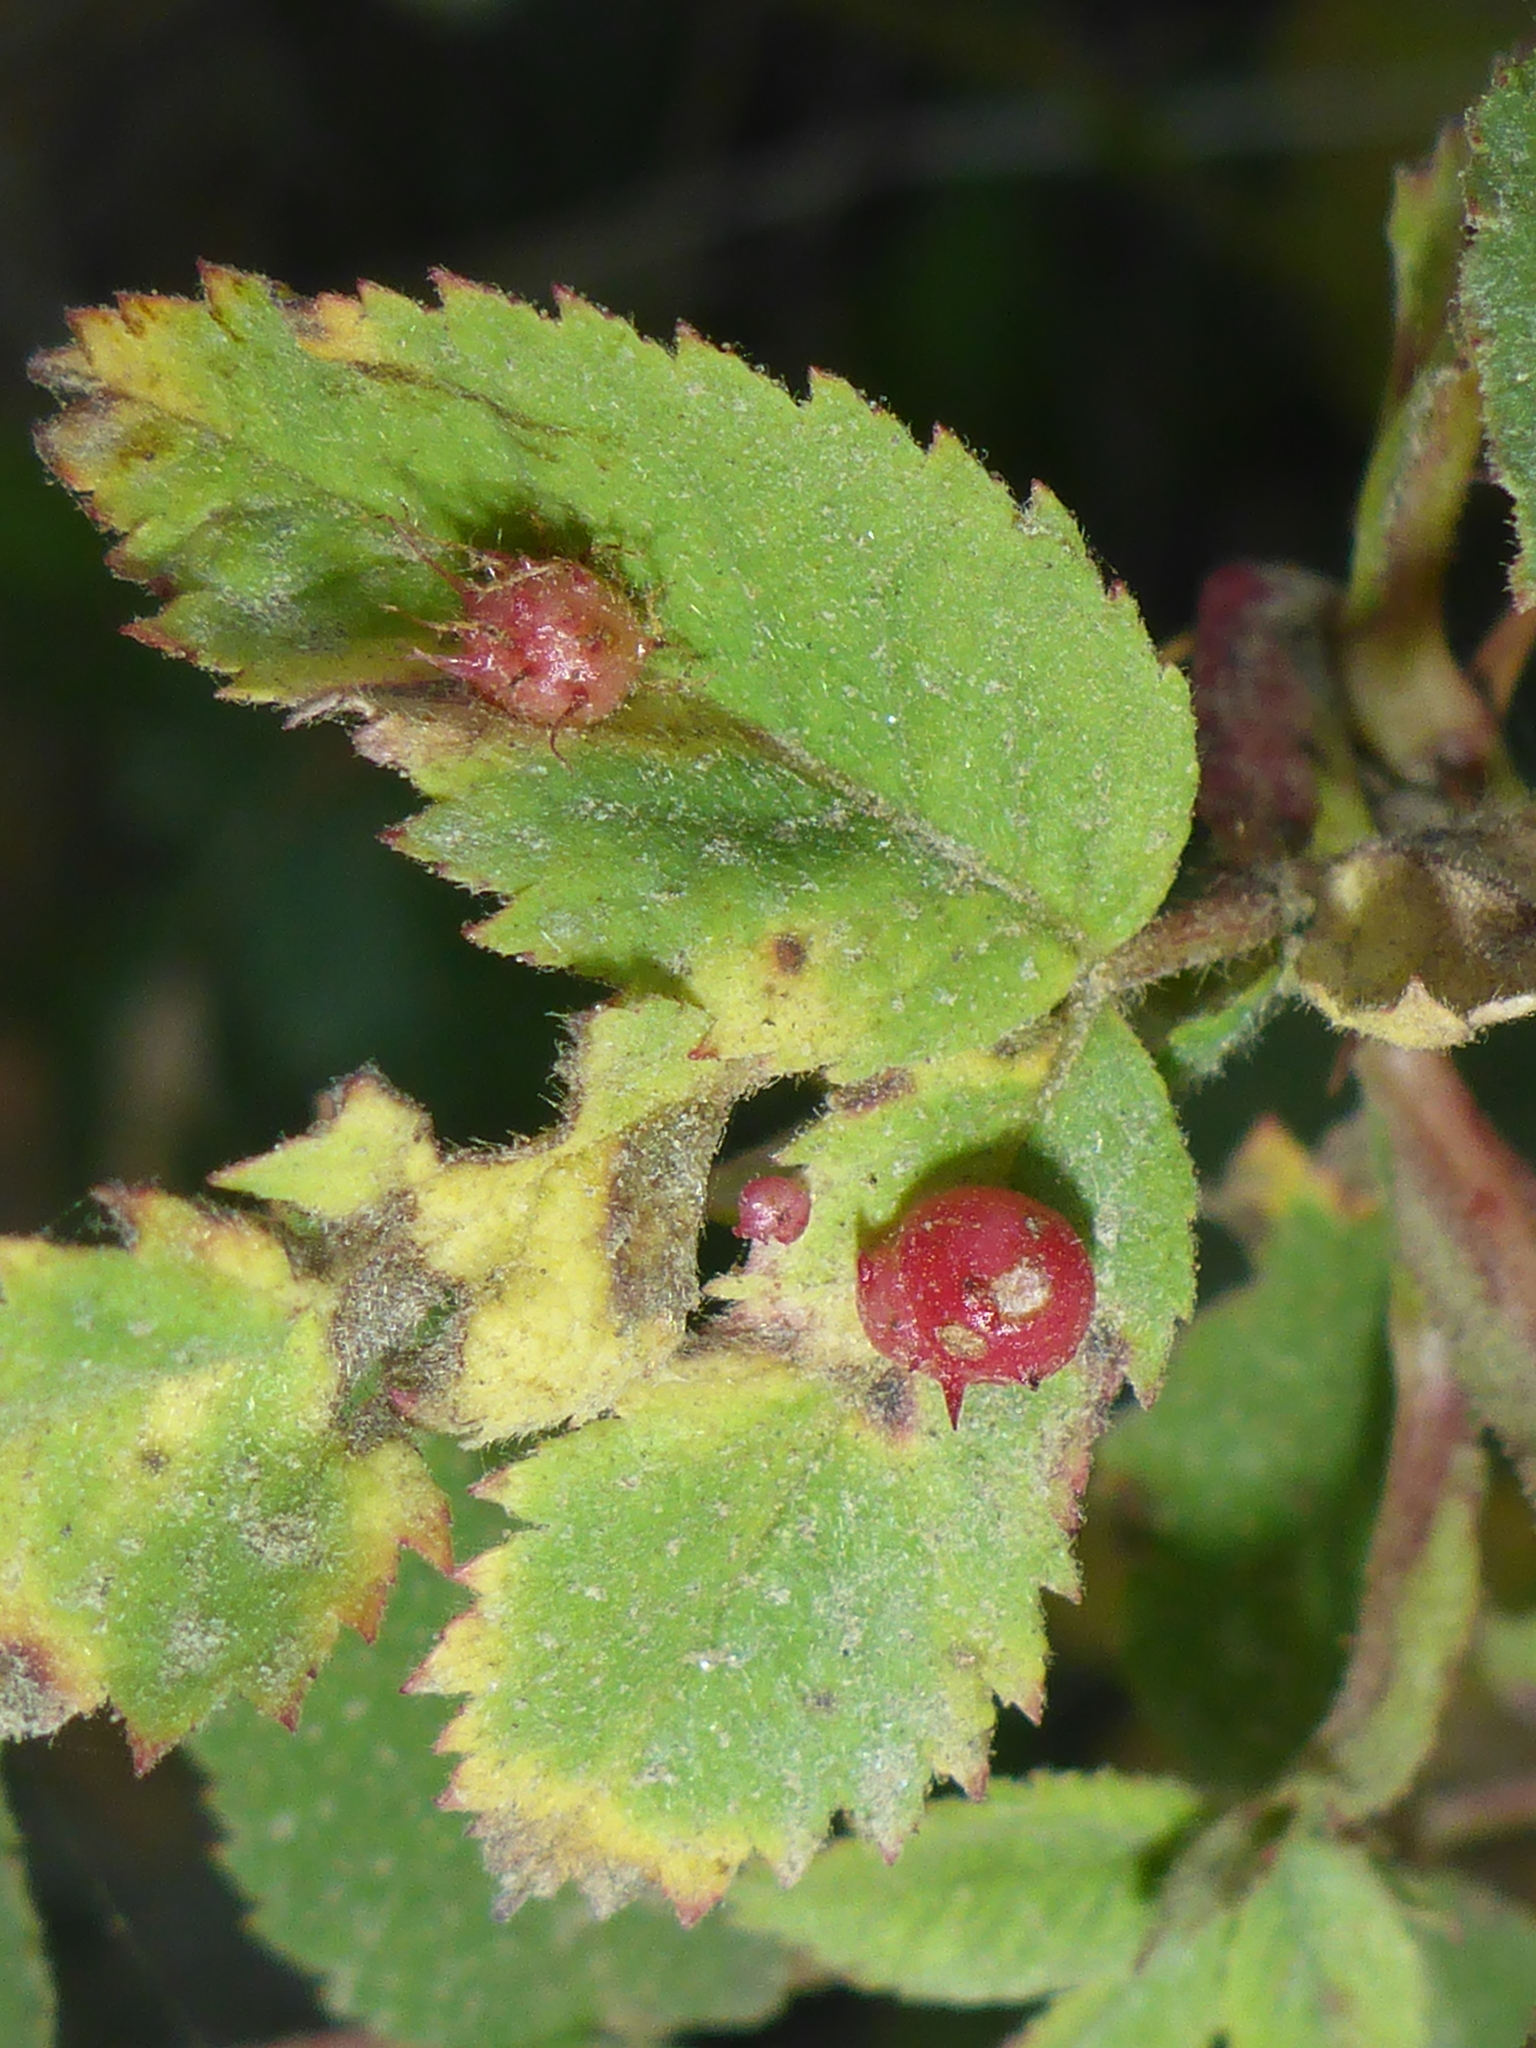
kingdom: Animalia
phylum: Arthropoda
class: Insecta
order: Hymenoptera
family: Cynipidae
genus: Diplolepis
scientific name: Diplolepis polita
